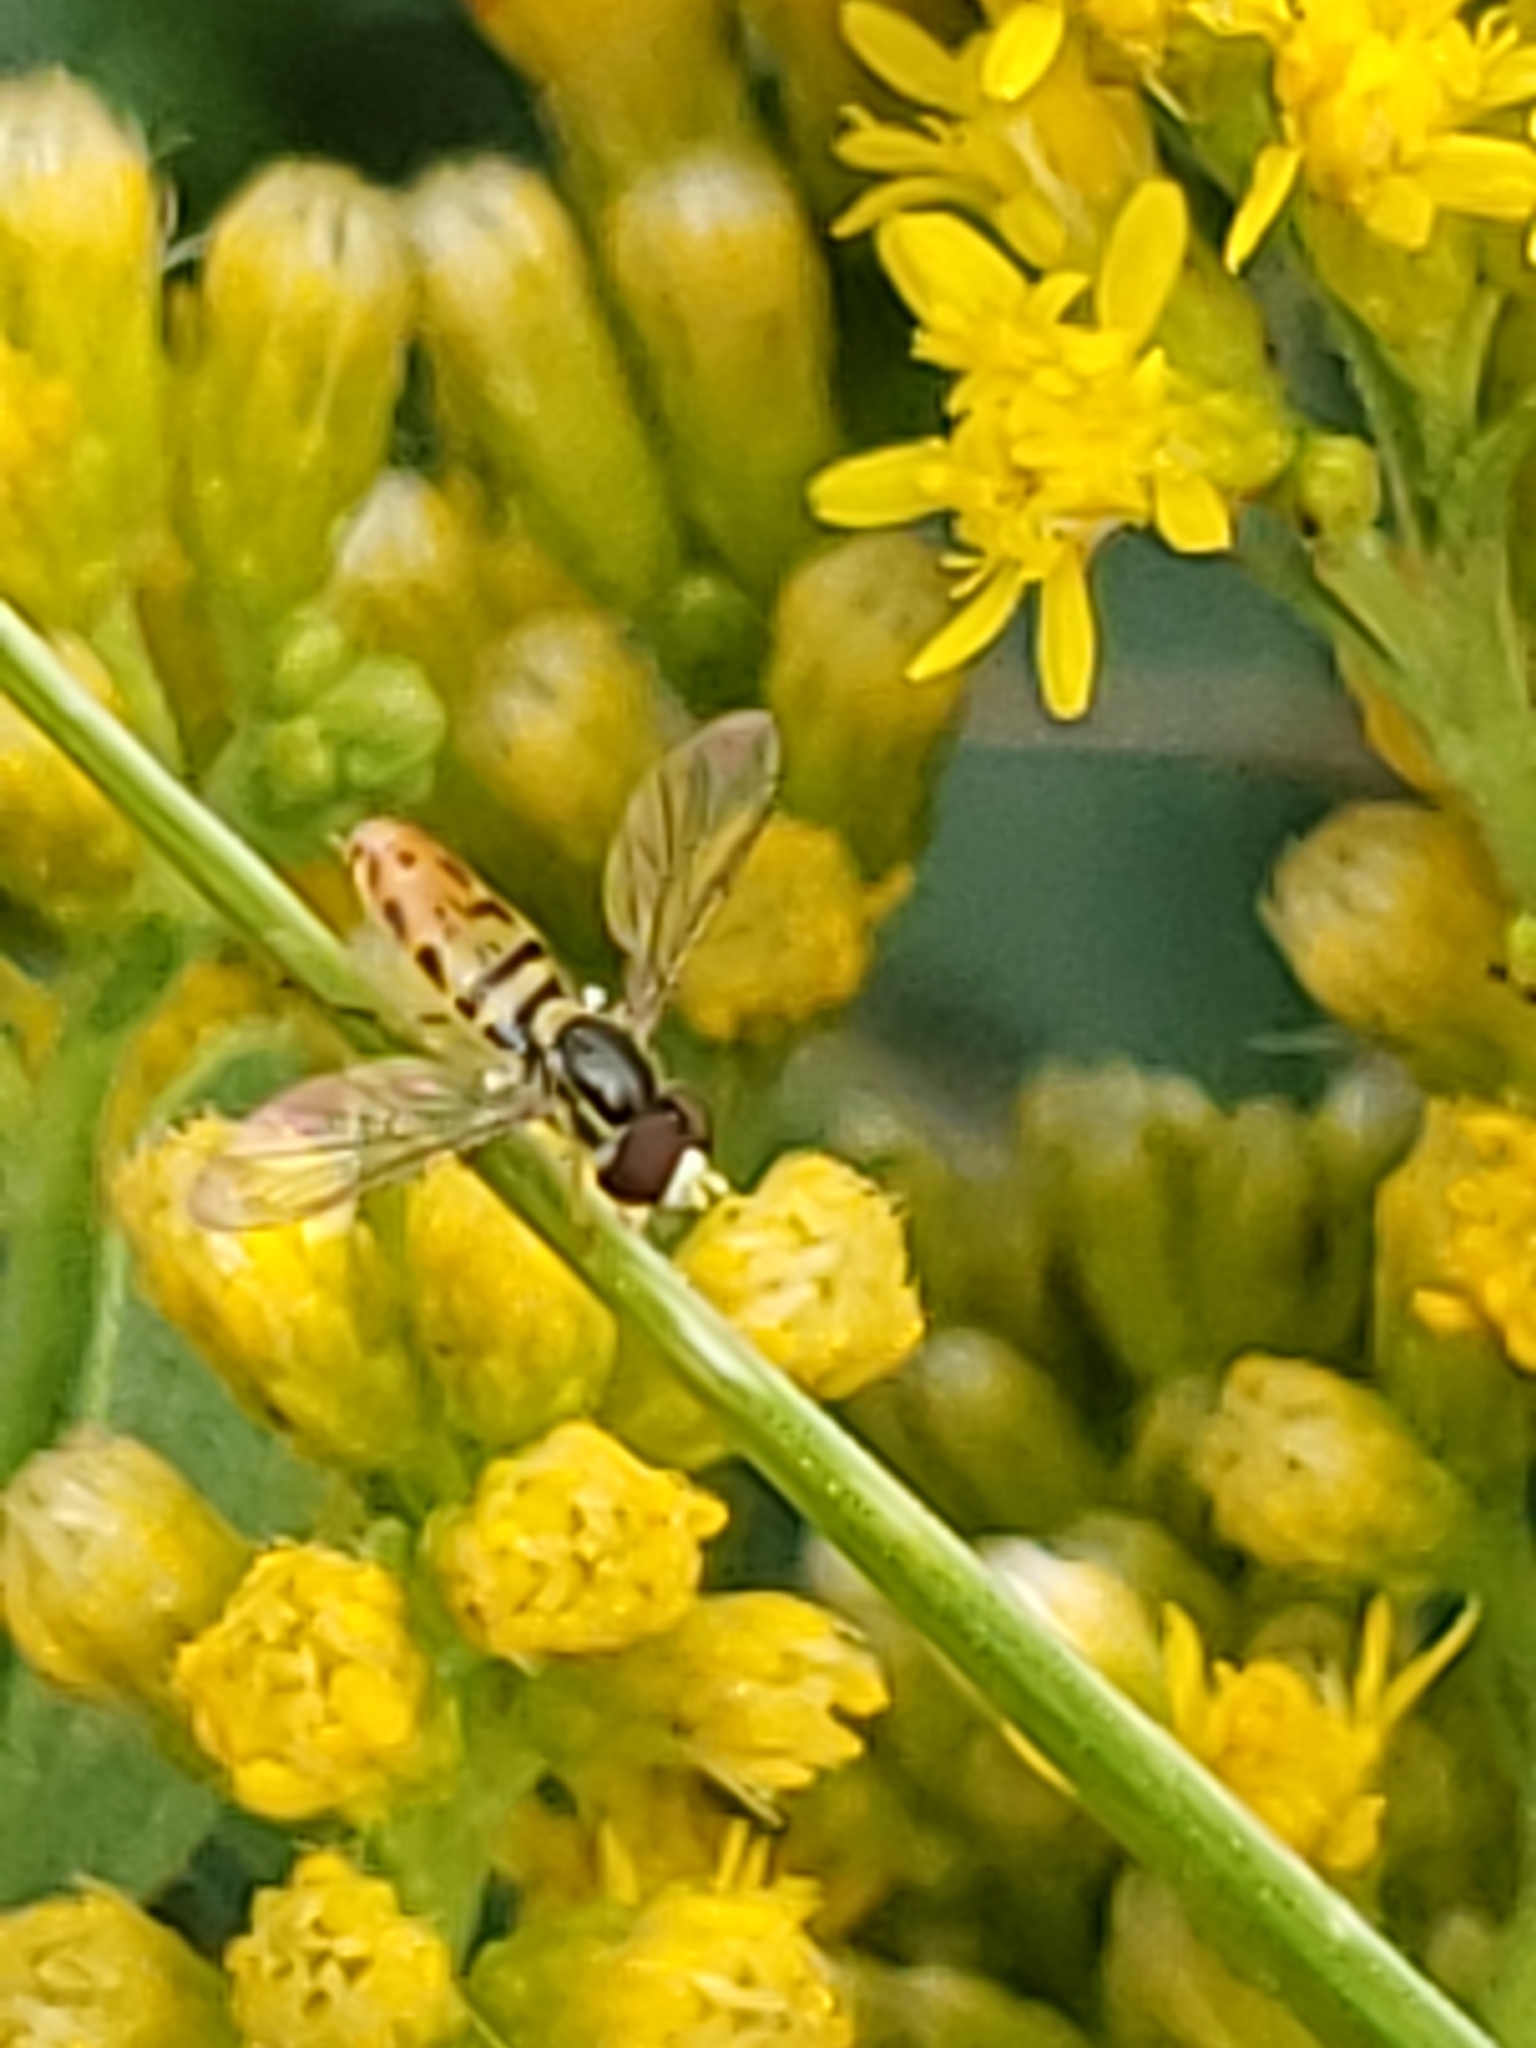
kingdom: Animalia
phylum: Arthropoda
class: Insecta
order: Diptera
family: Syrphidae
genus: Toxomerus
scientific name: Toxomerus marginatus
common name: Syrphid fly
